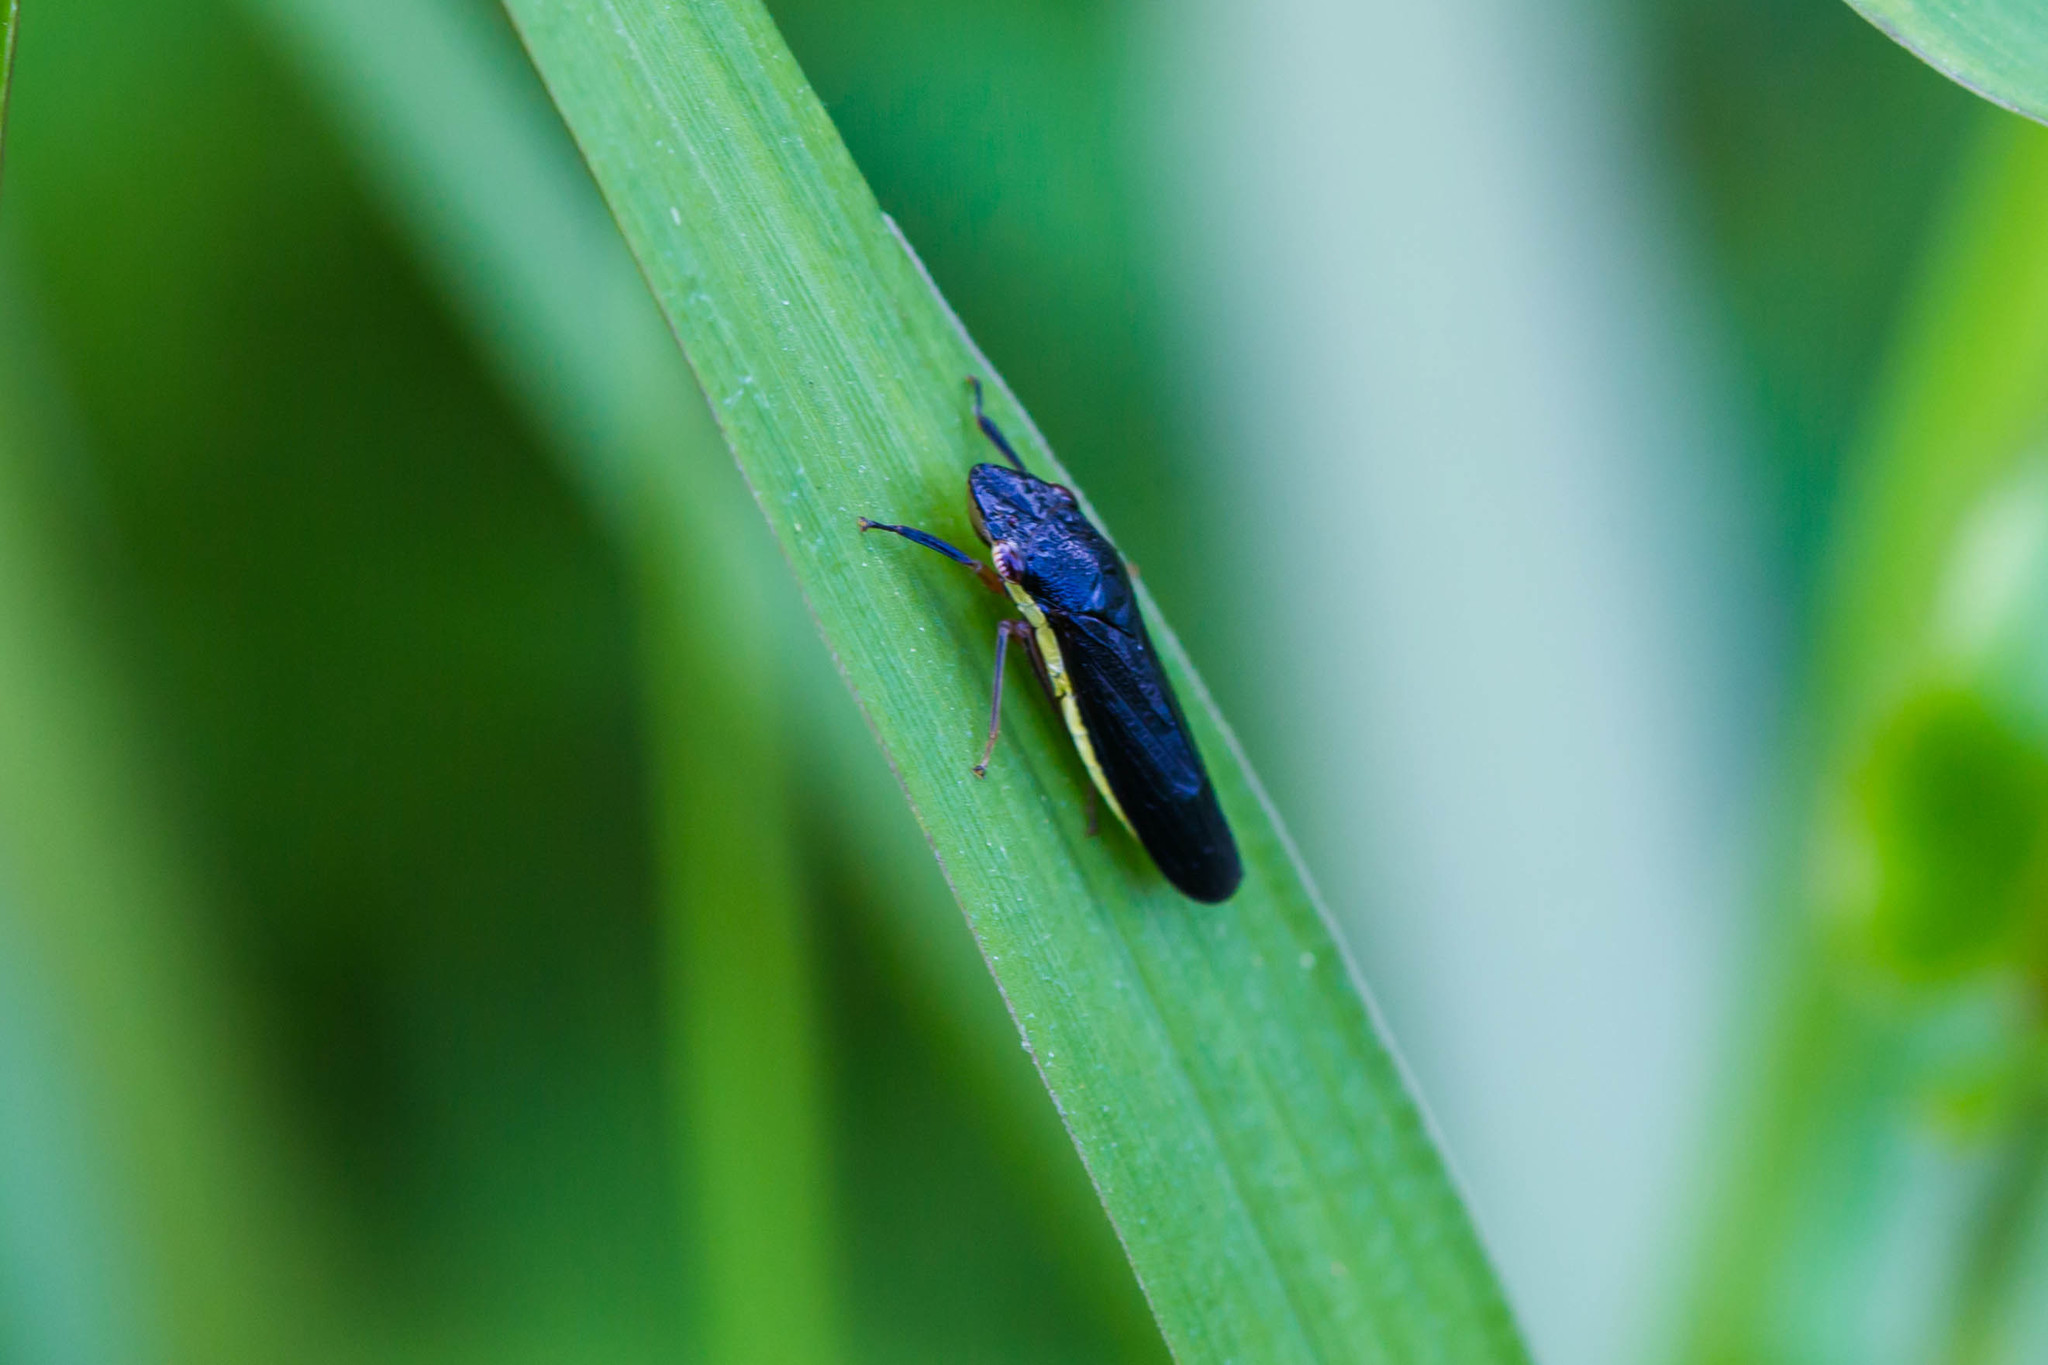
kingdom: Animalia
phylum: Arthropoda
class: Insecta
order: Hemiptera
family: Cicadellidae
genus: Homalodisca
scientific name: Homalodisca insolita
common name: Johnson grass sharpshooter
